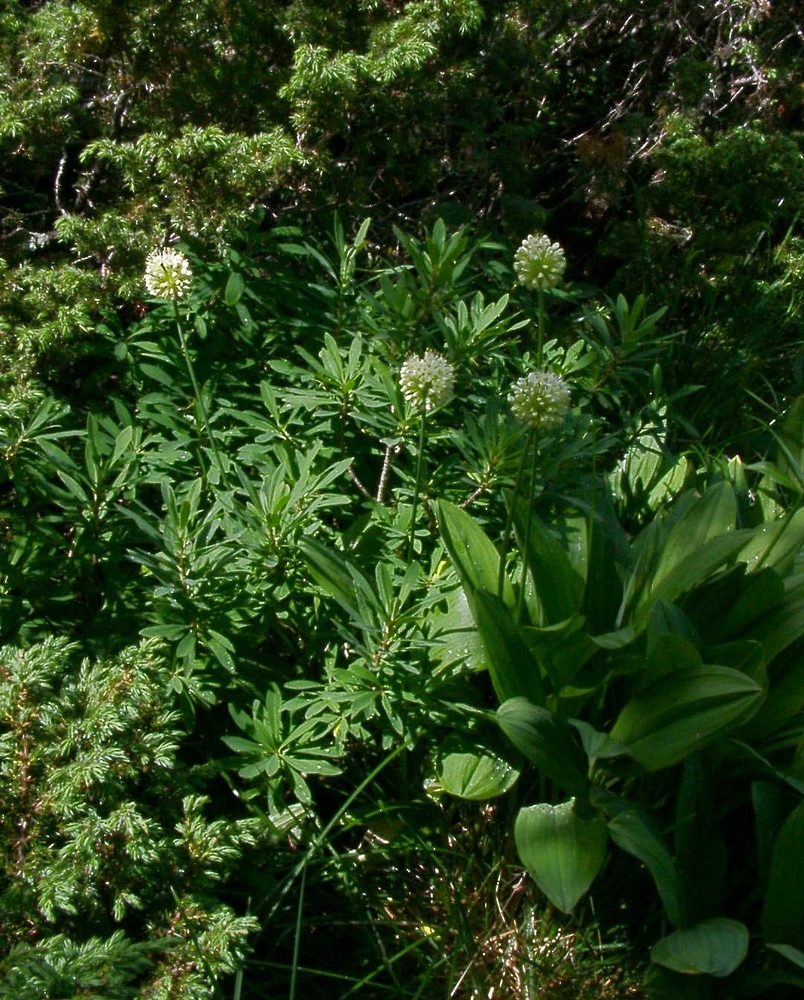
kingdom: Plantae
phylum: Tracheophyta
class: Liliopsida
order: Asparagales
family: Amaryllidaceae
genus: Allium
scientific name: Allium victorialis
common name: Alpine leek
